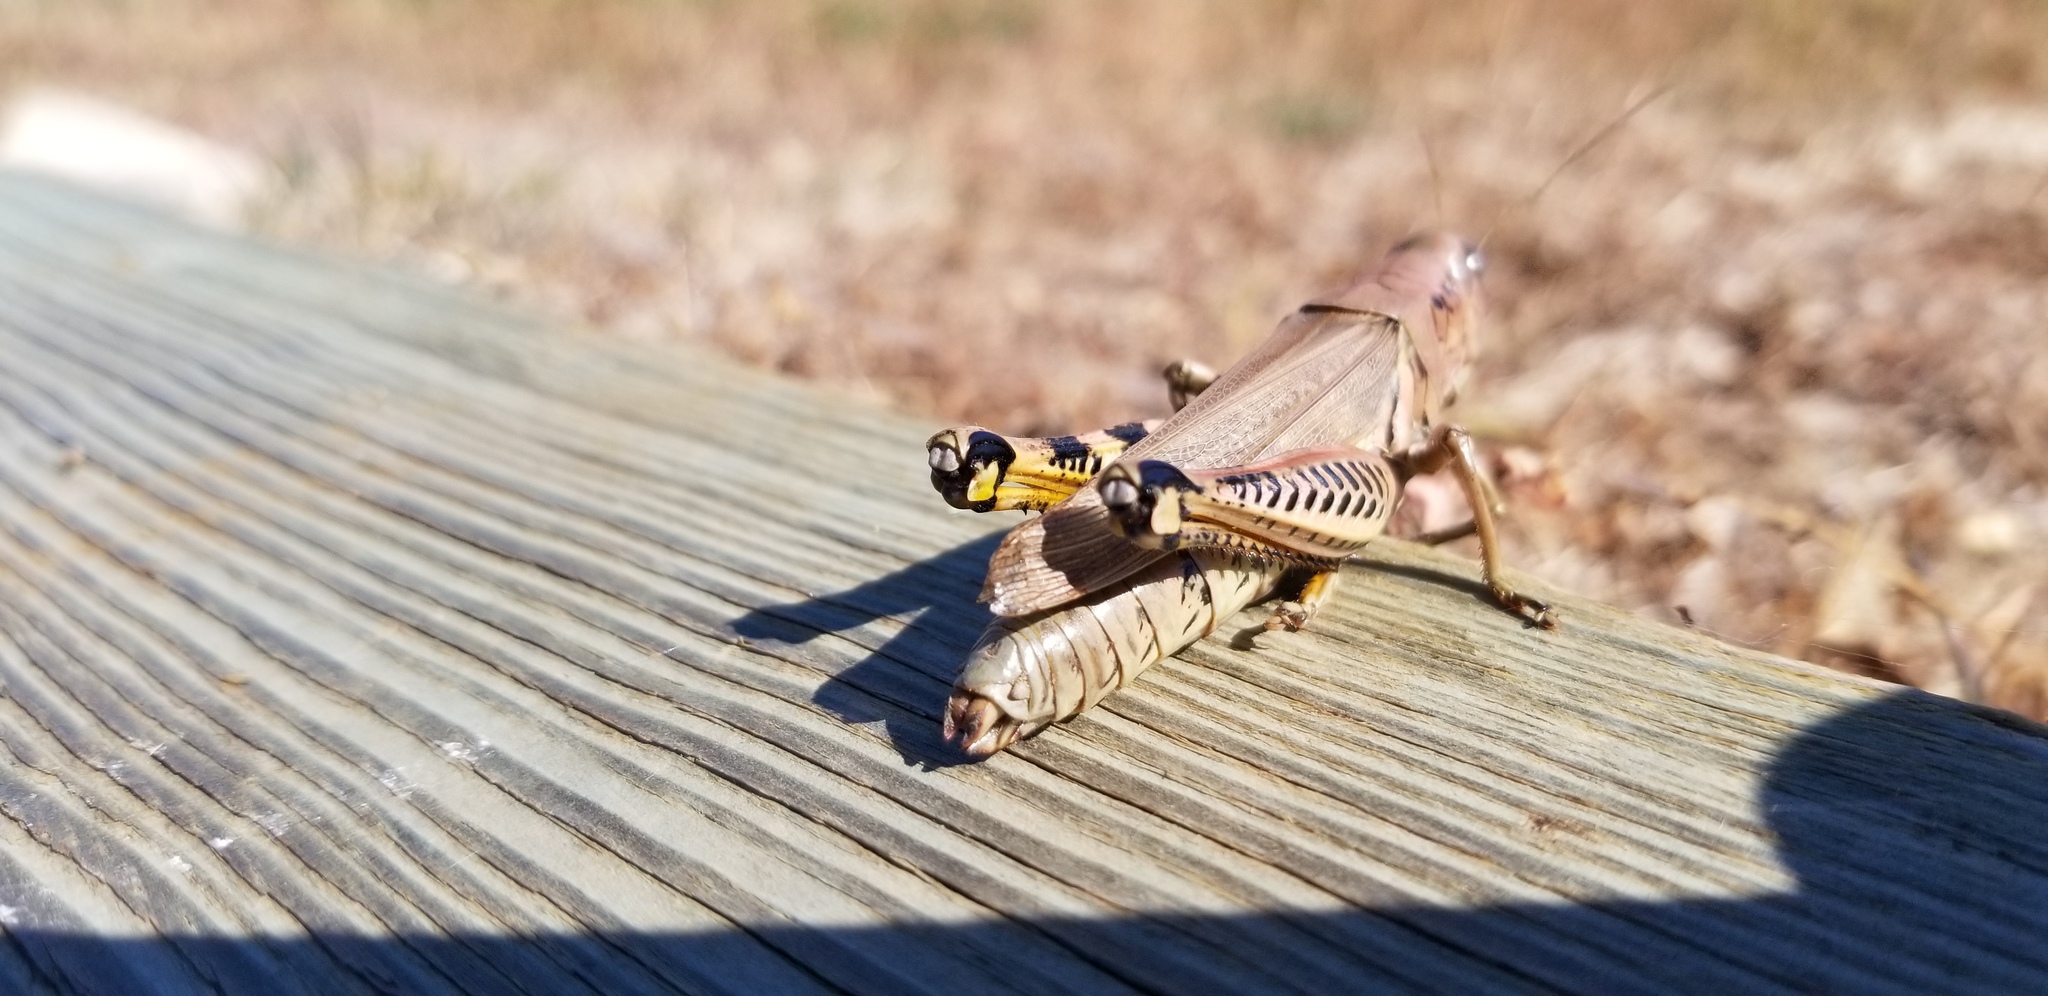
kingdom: Animalia
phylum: Arthropoda
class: Insecta
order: Orthoptera
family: Acrididae
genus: Melanoplus
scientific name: Melanoplus differentialis
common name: Differential grasshopper
